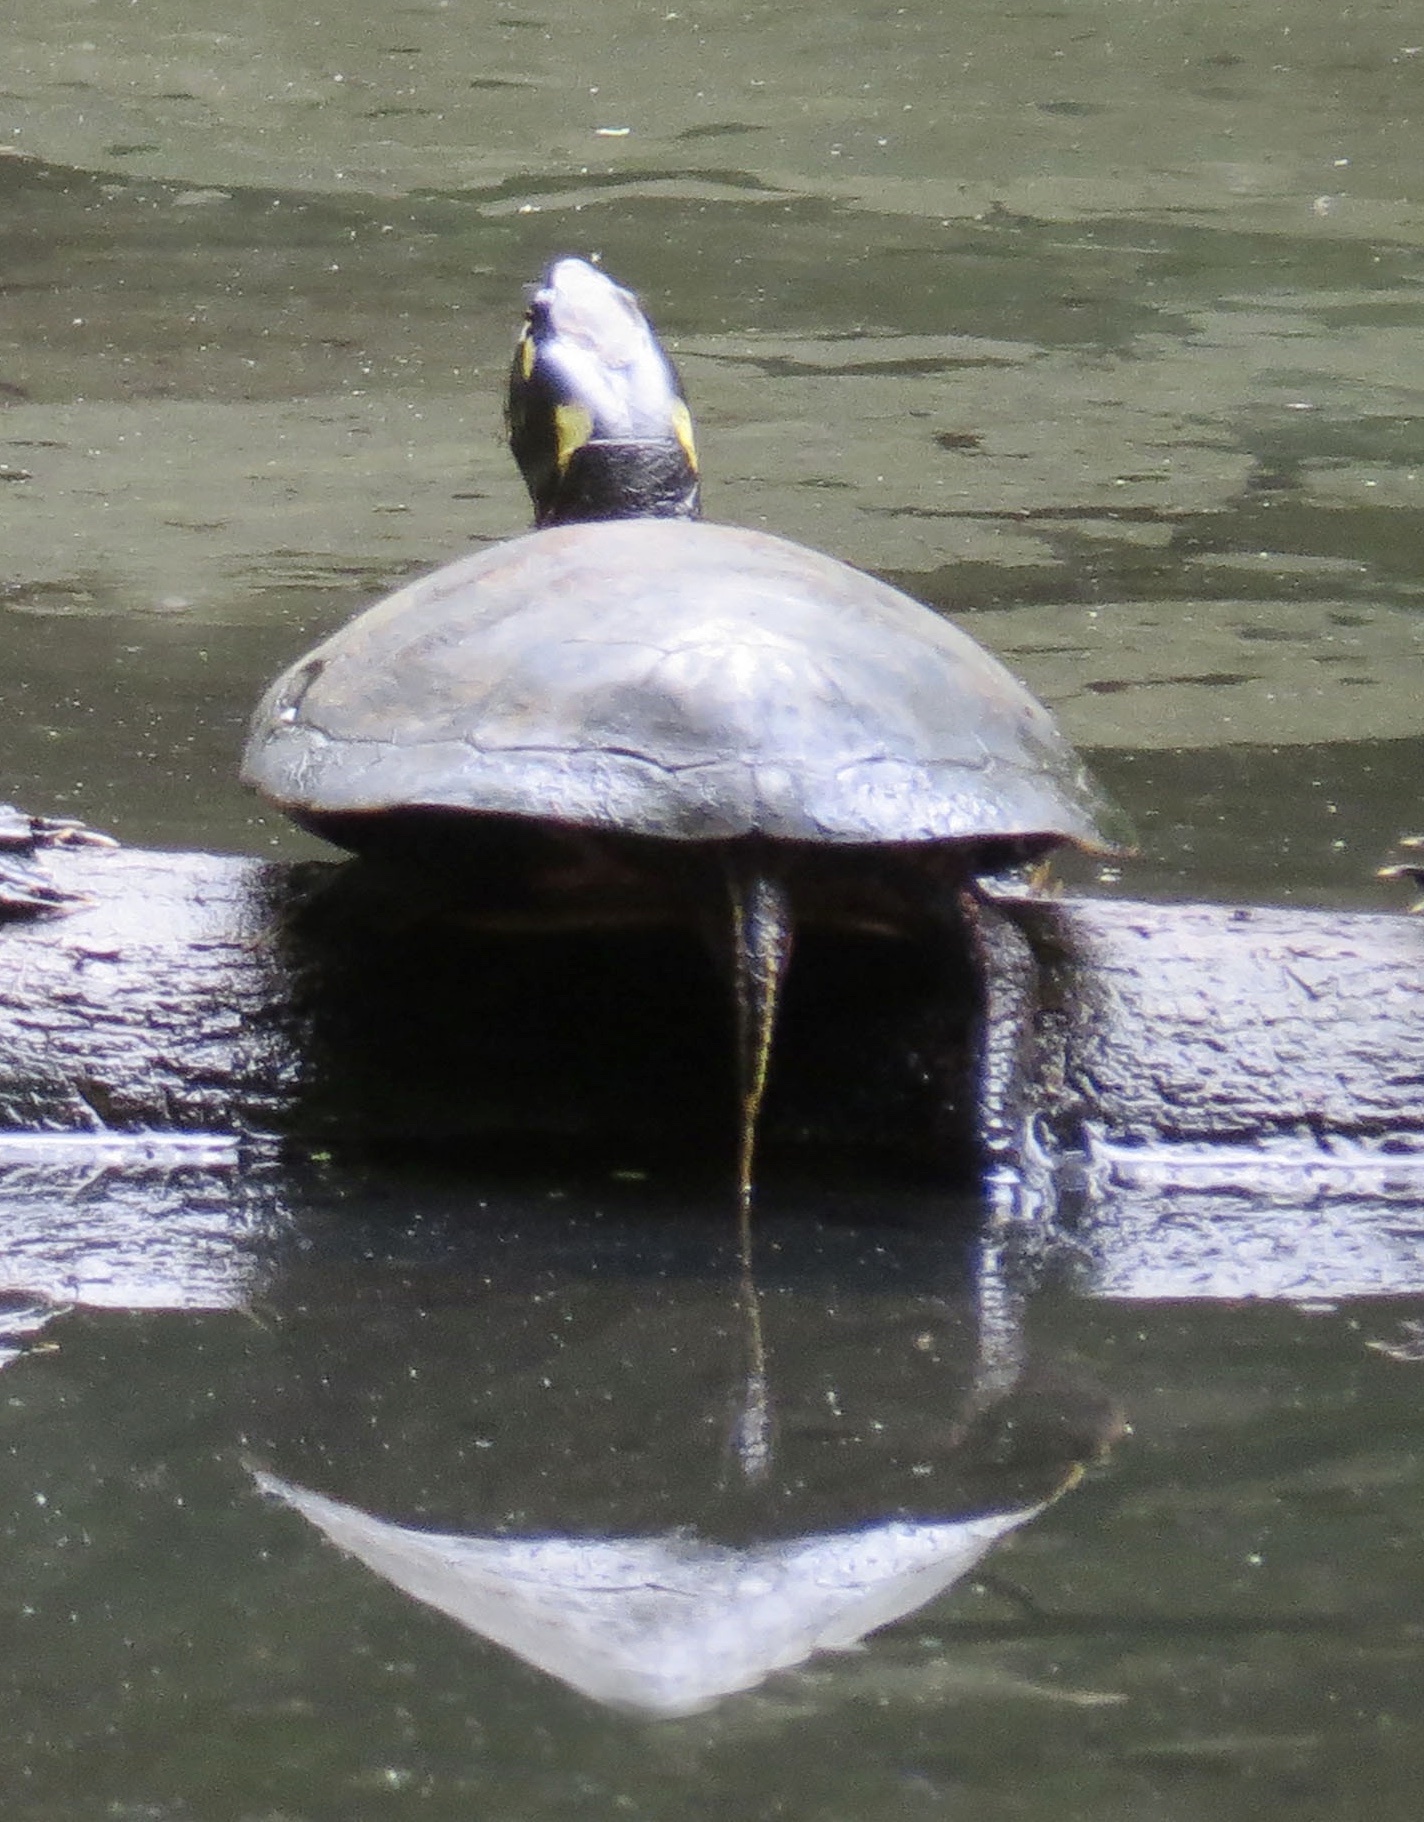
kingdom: Animalia
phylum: Chordata
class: Testudines
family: Emydidae
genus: Chrysemys
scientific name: Chrysemys picta
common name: Painted turtle
